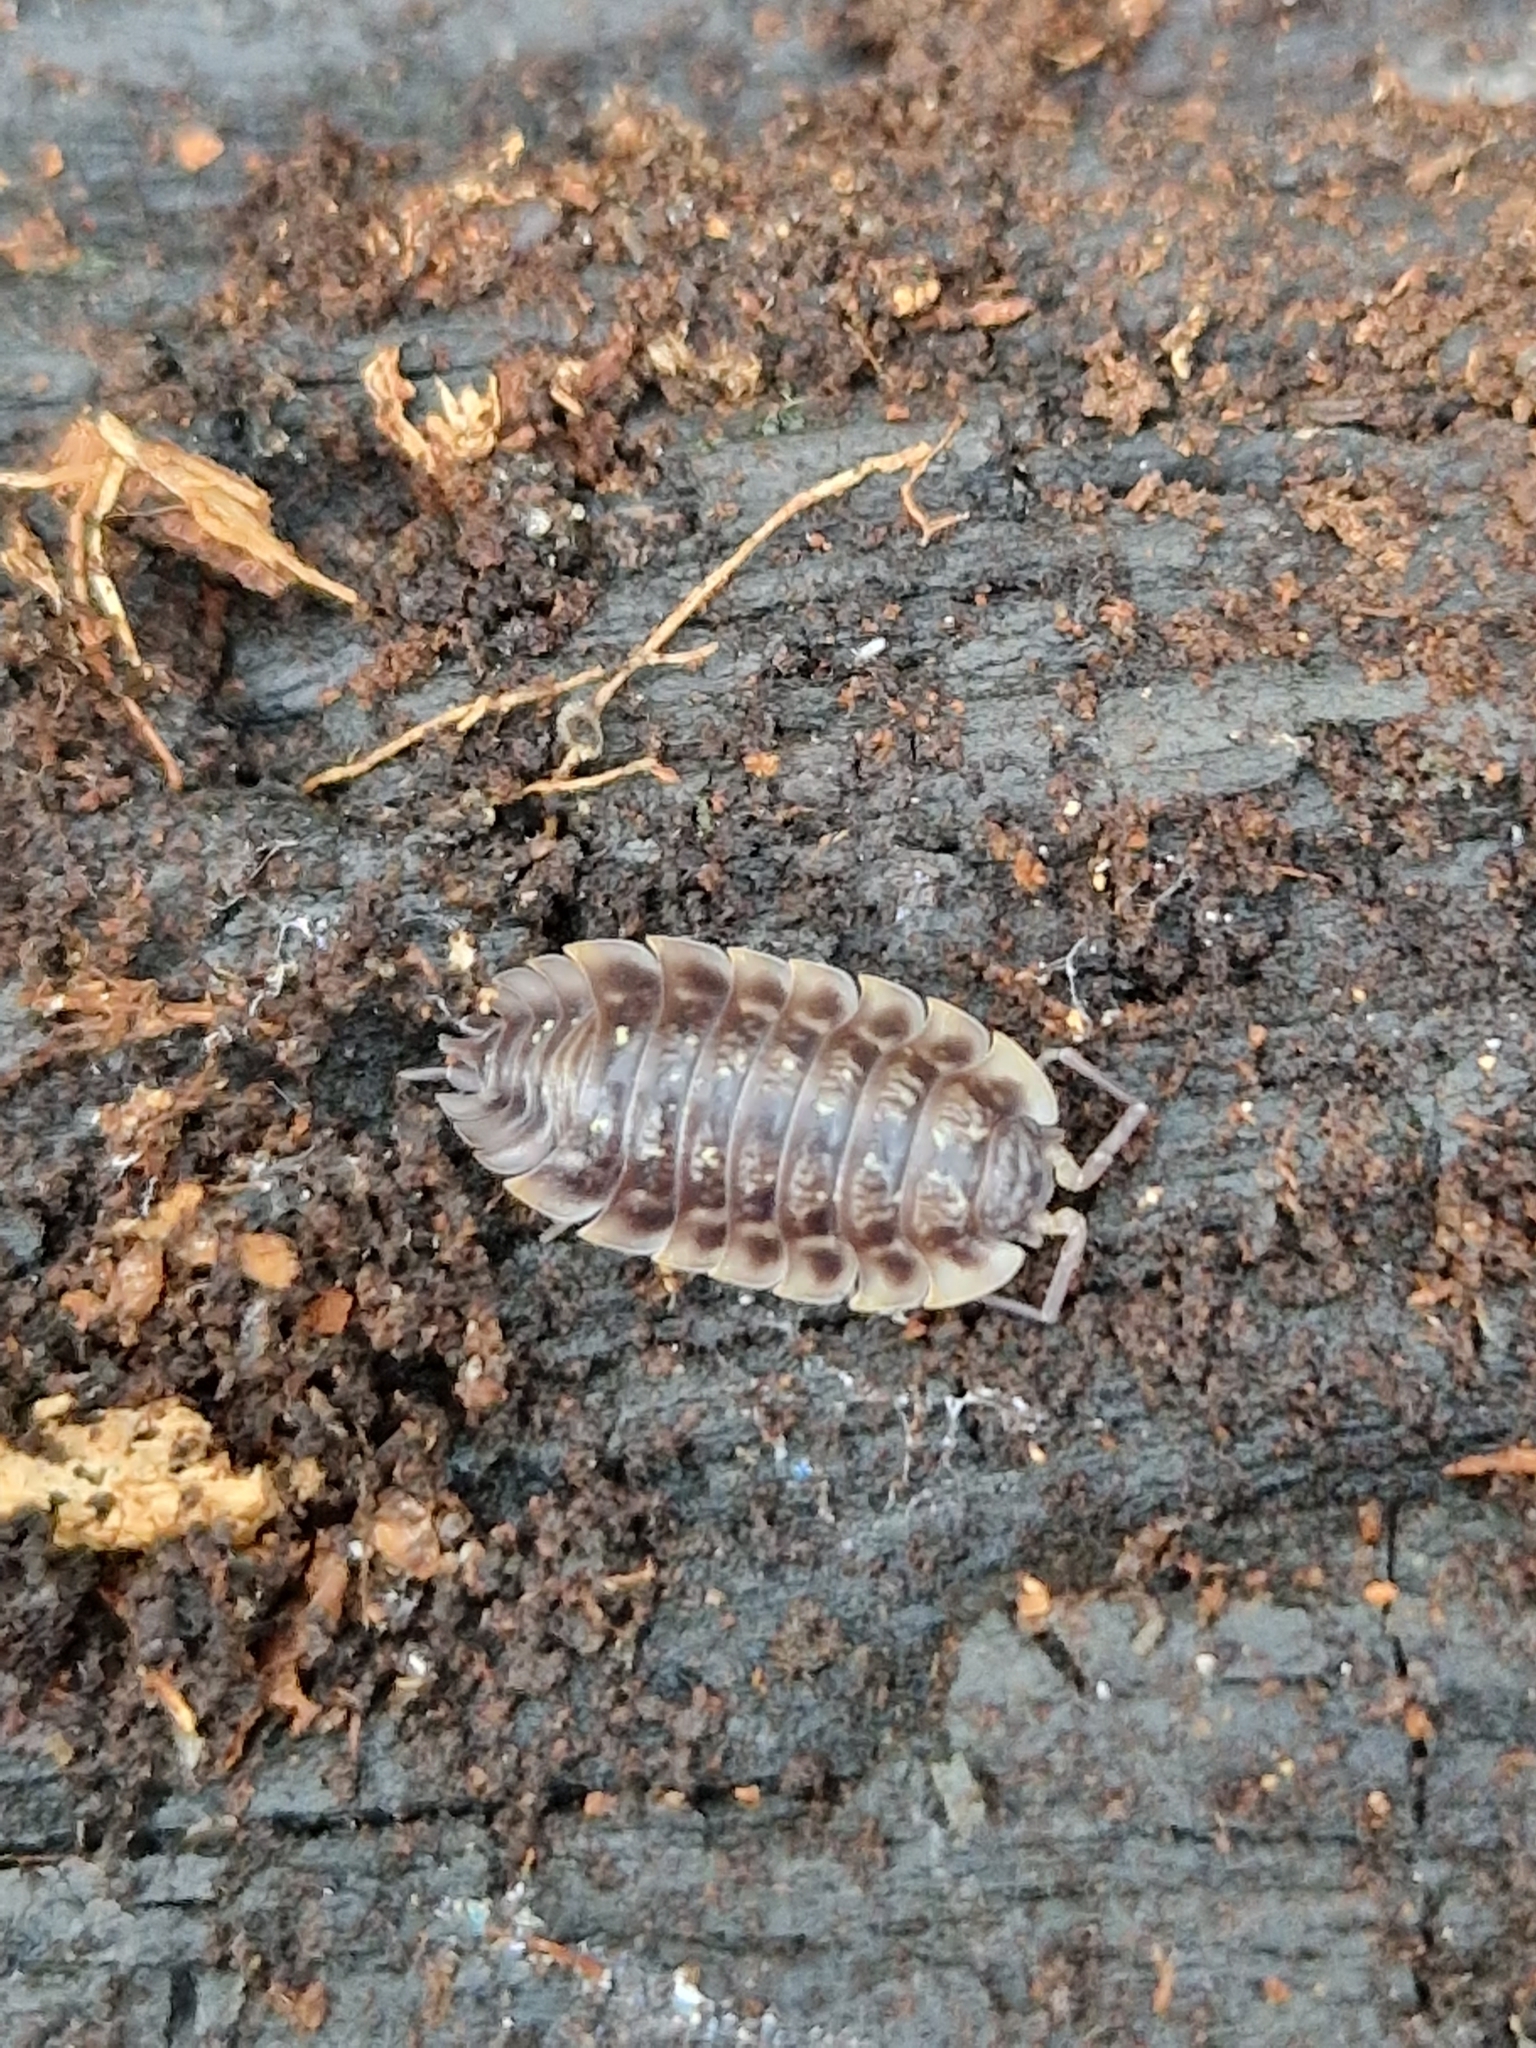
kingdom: Animalia
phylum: Arthropoda
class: Malacostraca
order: Isopoda
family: Oniscidae
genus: Oniscus
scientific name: Oniscus asellus
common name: Common shiny woodlouse
